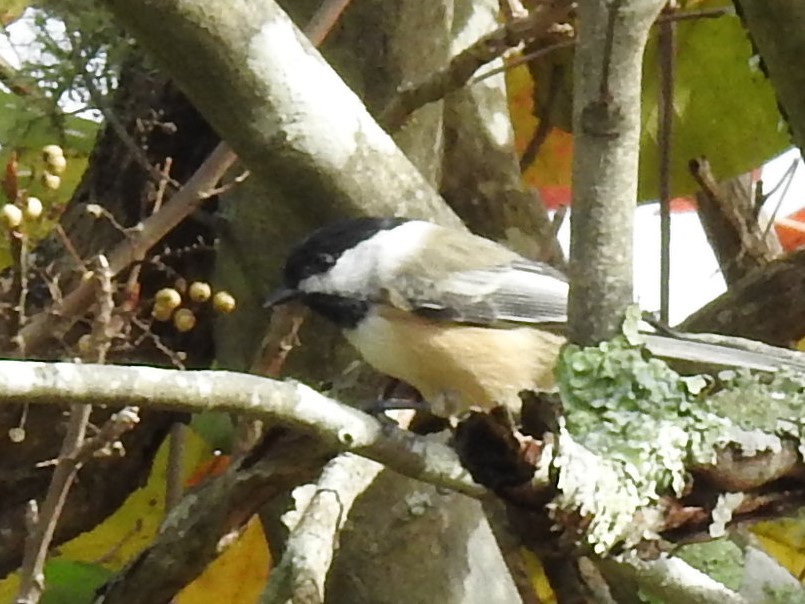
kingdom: Animalia
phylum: Chordata
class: Aves
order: Passeriformes
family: Paridae
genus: Poecile
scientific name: Poecile atricapillus
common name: Black-capped chickadee
